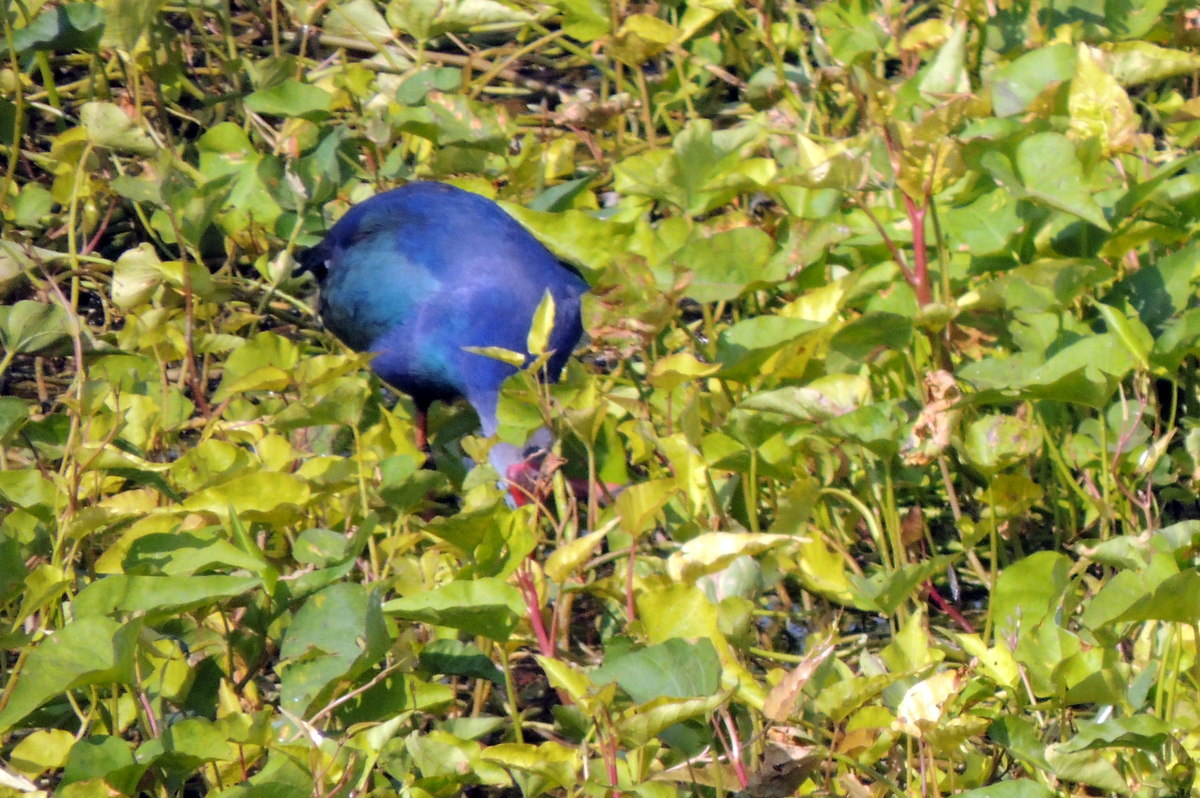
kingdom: Animalia
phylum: Chordata
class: Aves
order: Gruiformes
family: Rallidae
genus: Porphyrio
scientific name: Porphyrio porphyrio
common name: Purple swamphen
